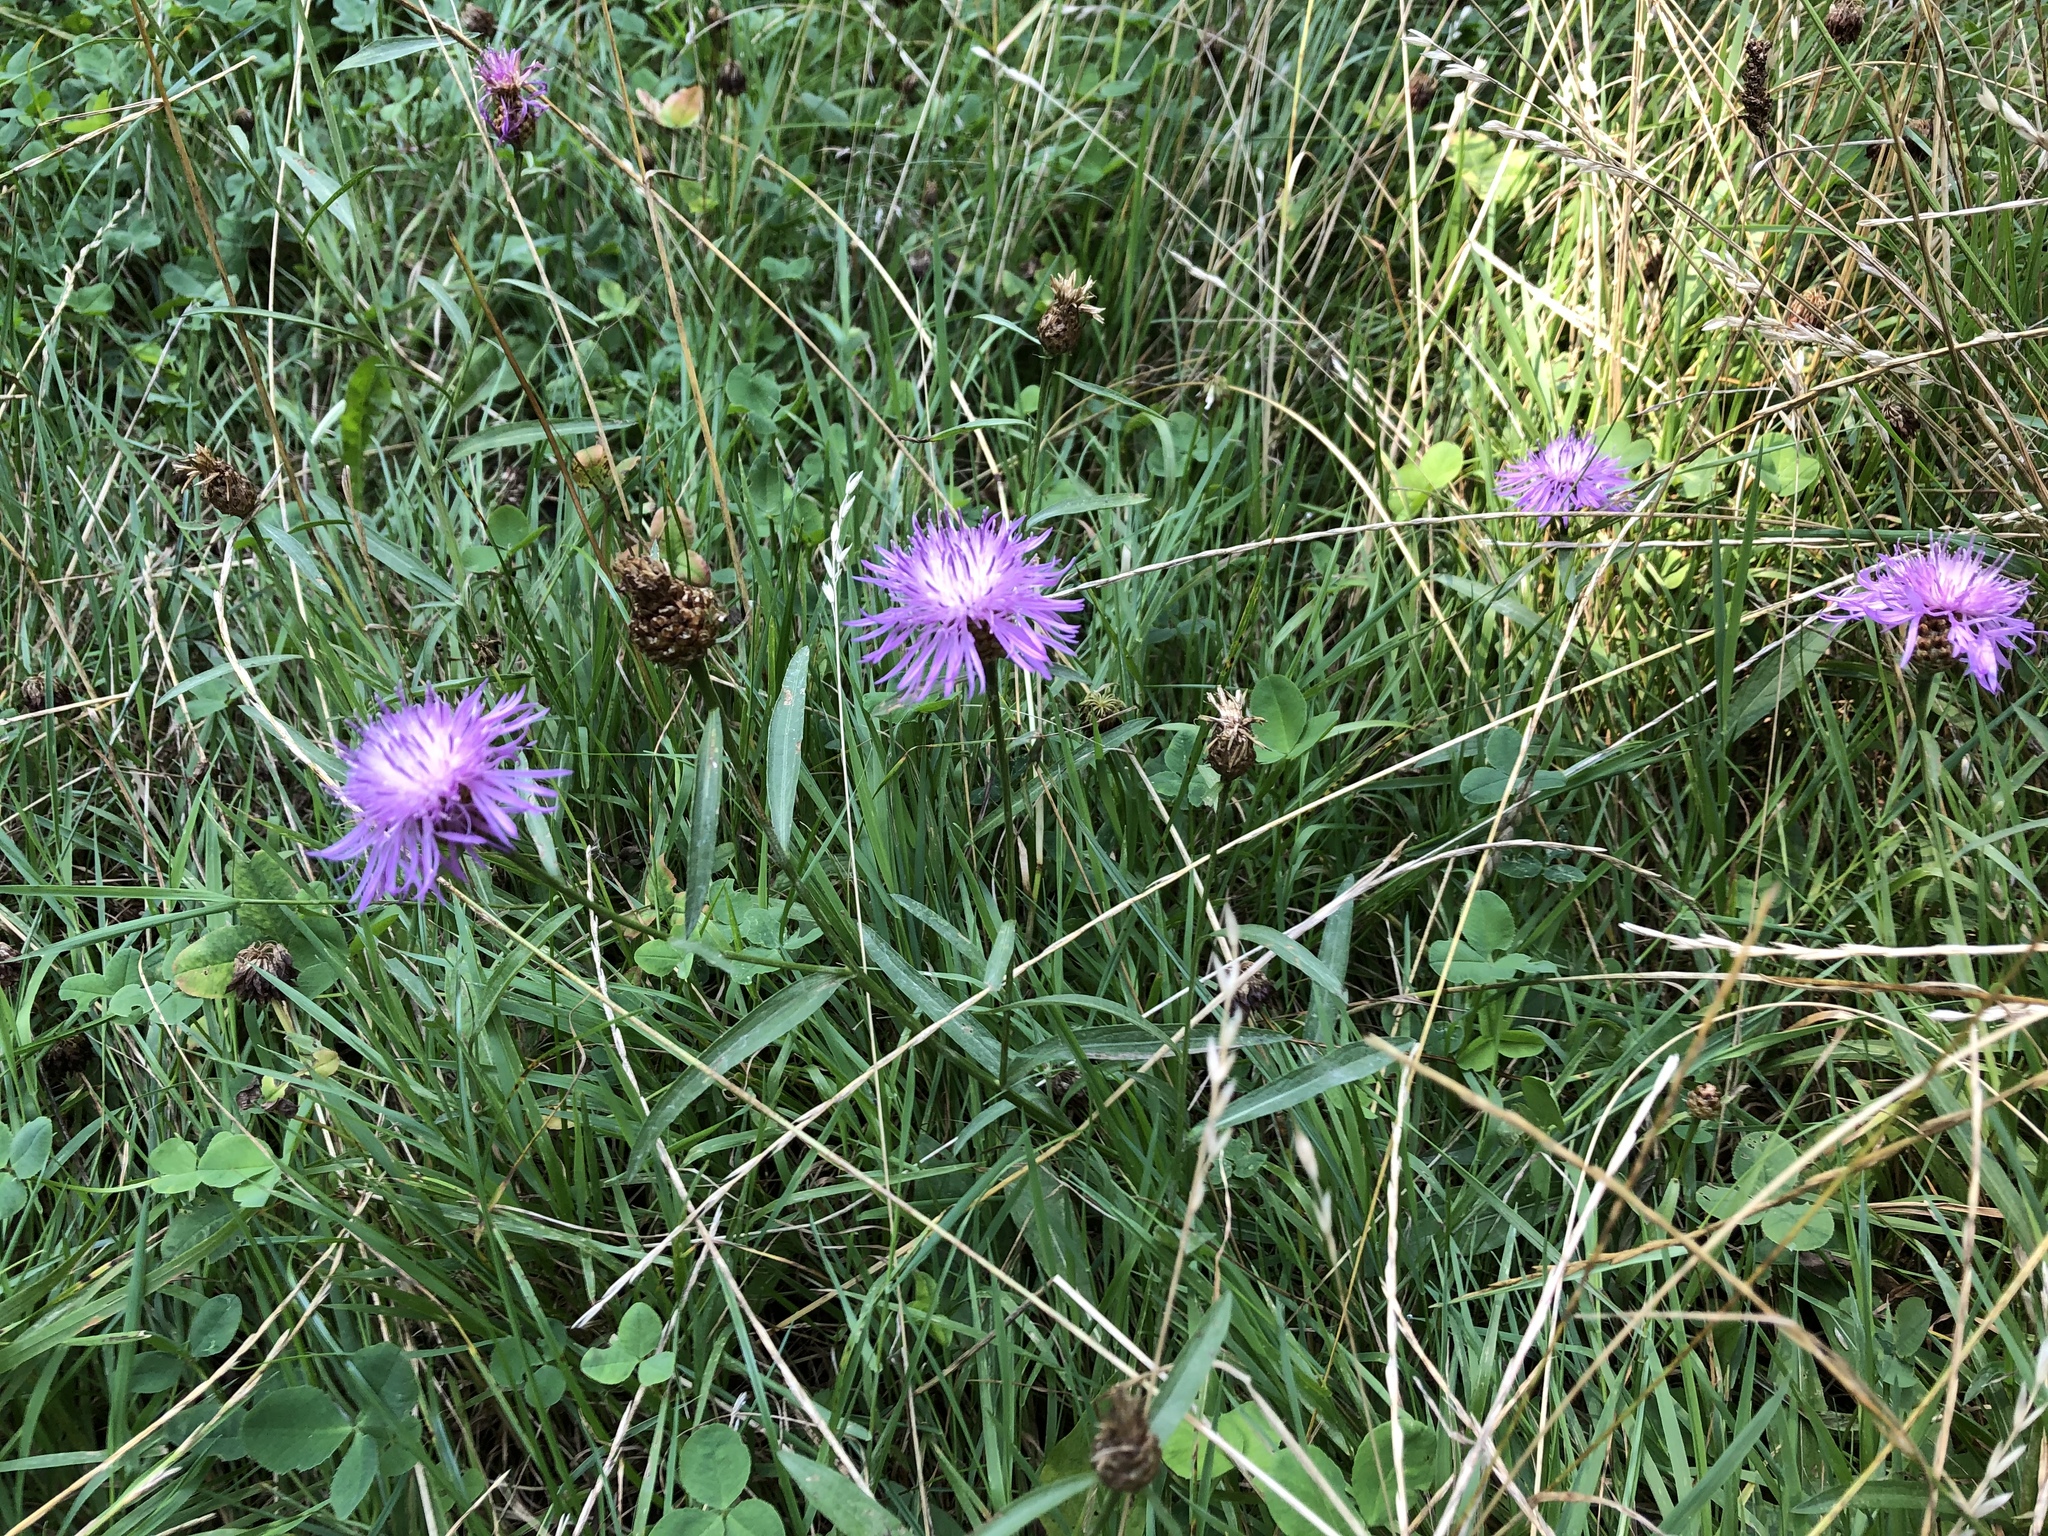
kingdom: Plantae
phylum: Tracheophyta
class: Magnoliopsida
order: Asterales
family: Asteraceae
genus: Centaurea
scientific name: Centaurea jacea
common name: Brown knapweed
